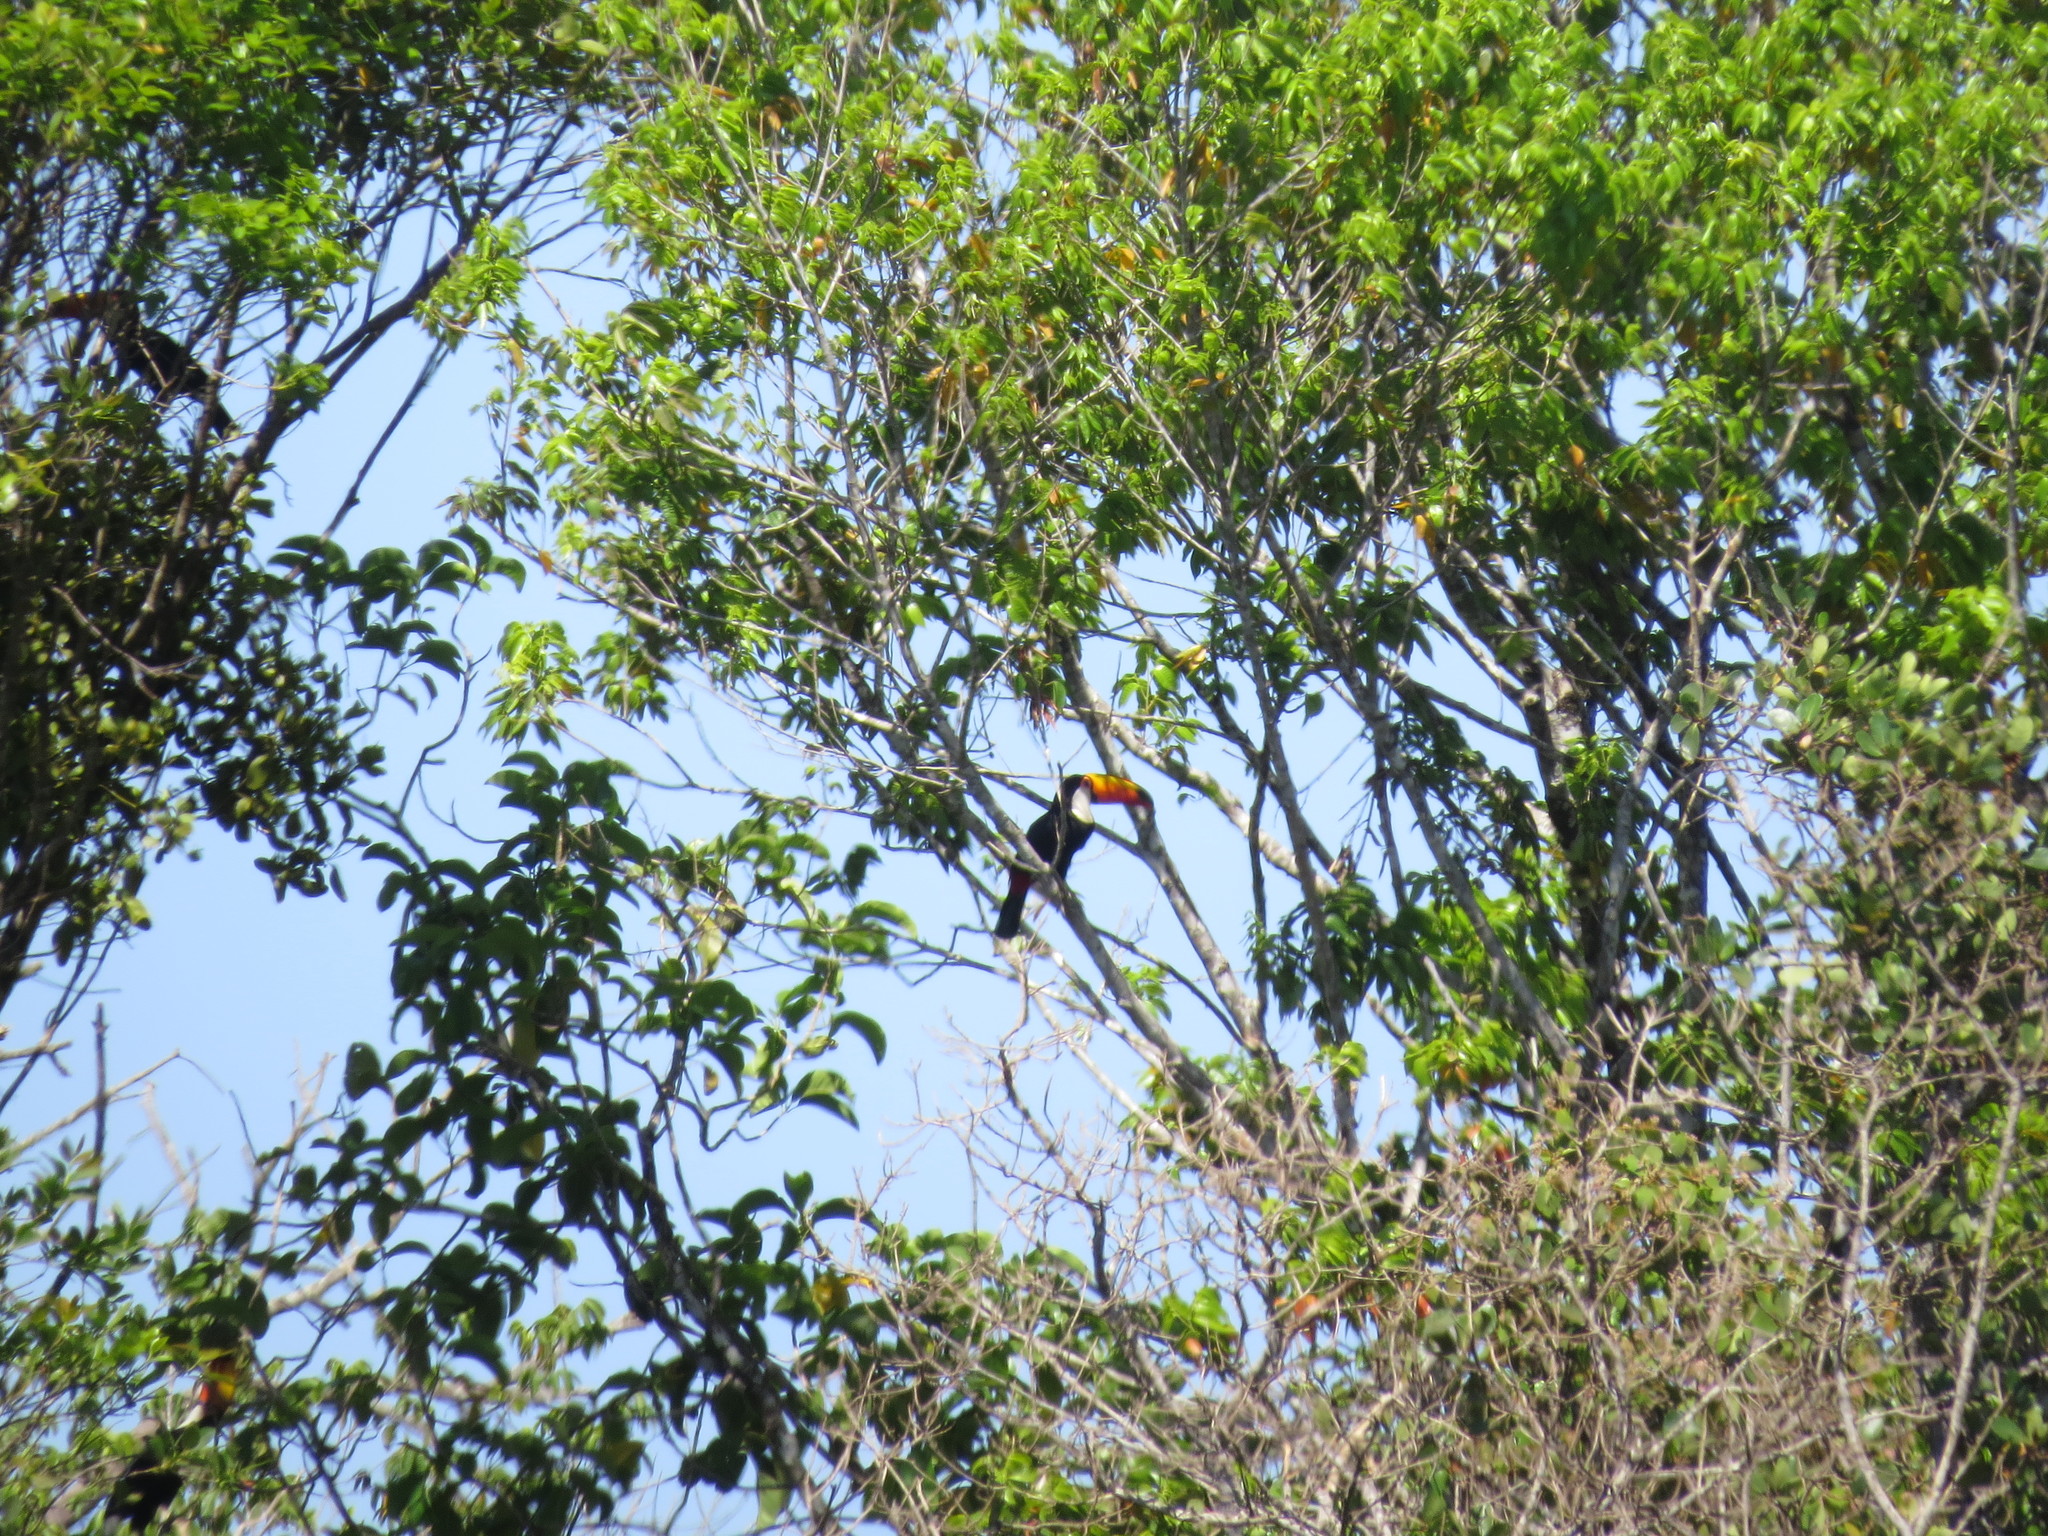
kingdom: Animalia
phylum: Chordata
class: Aves
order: Piciformes
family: Ramphastidae
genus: Ramphastos
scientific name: Ramphastos toco
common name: Toco toucan
